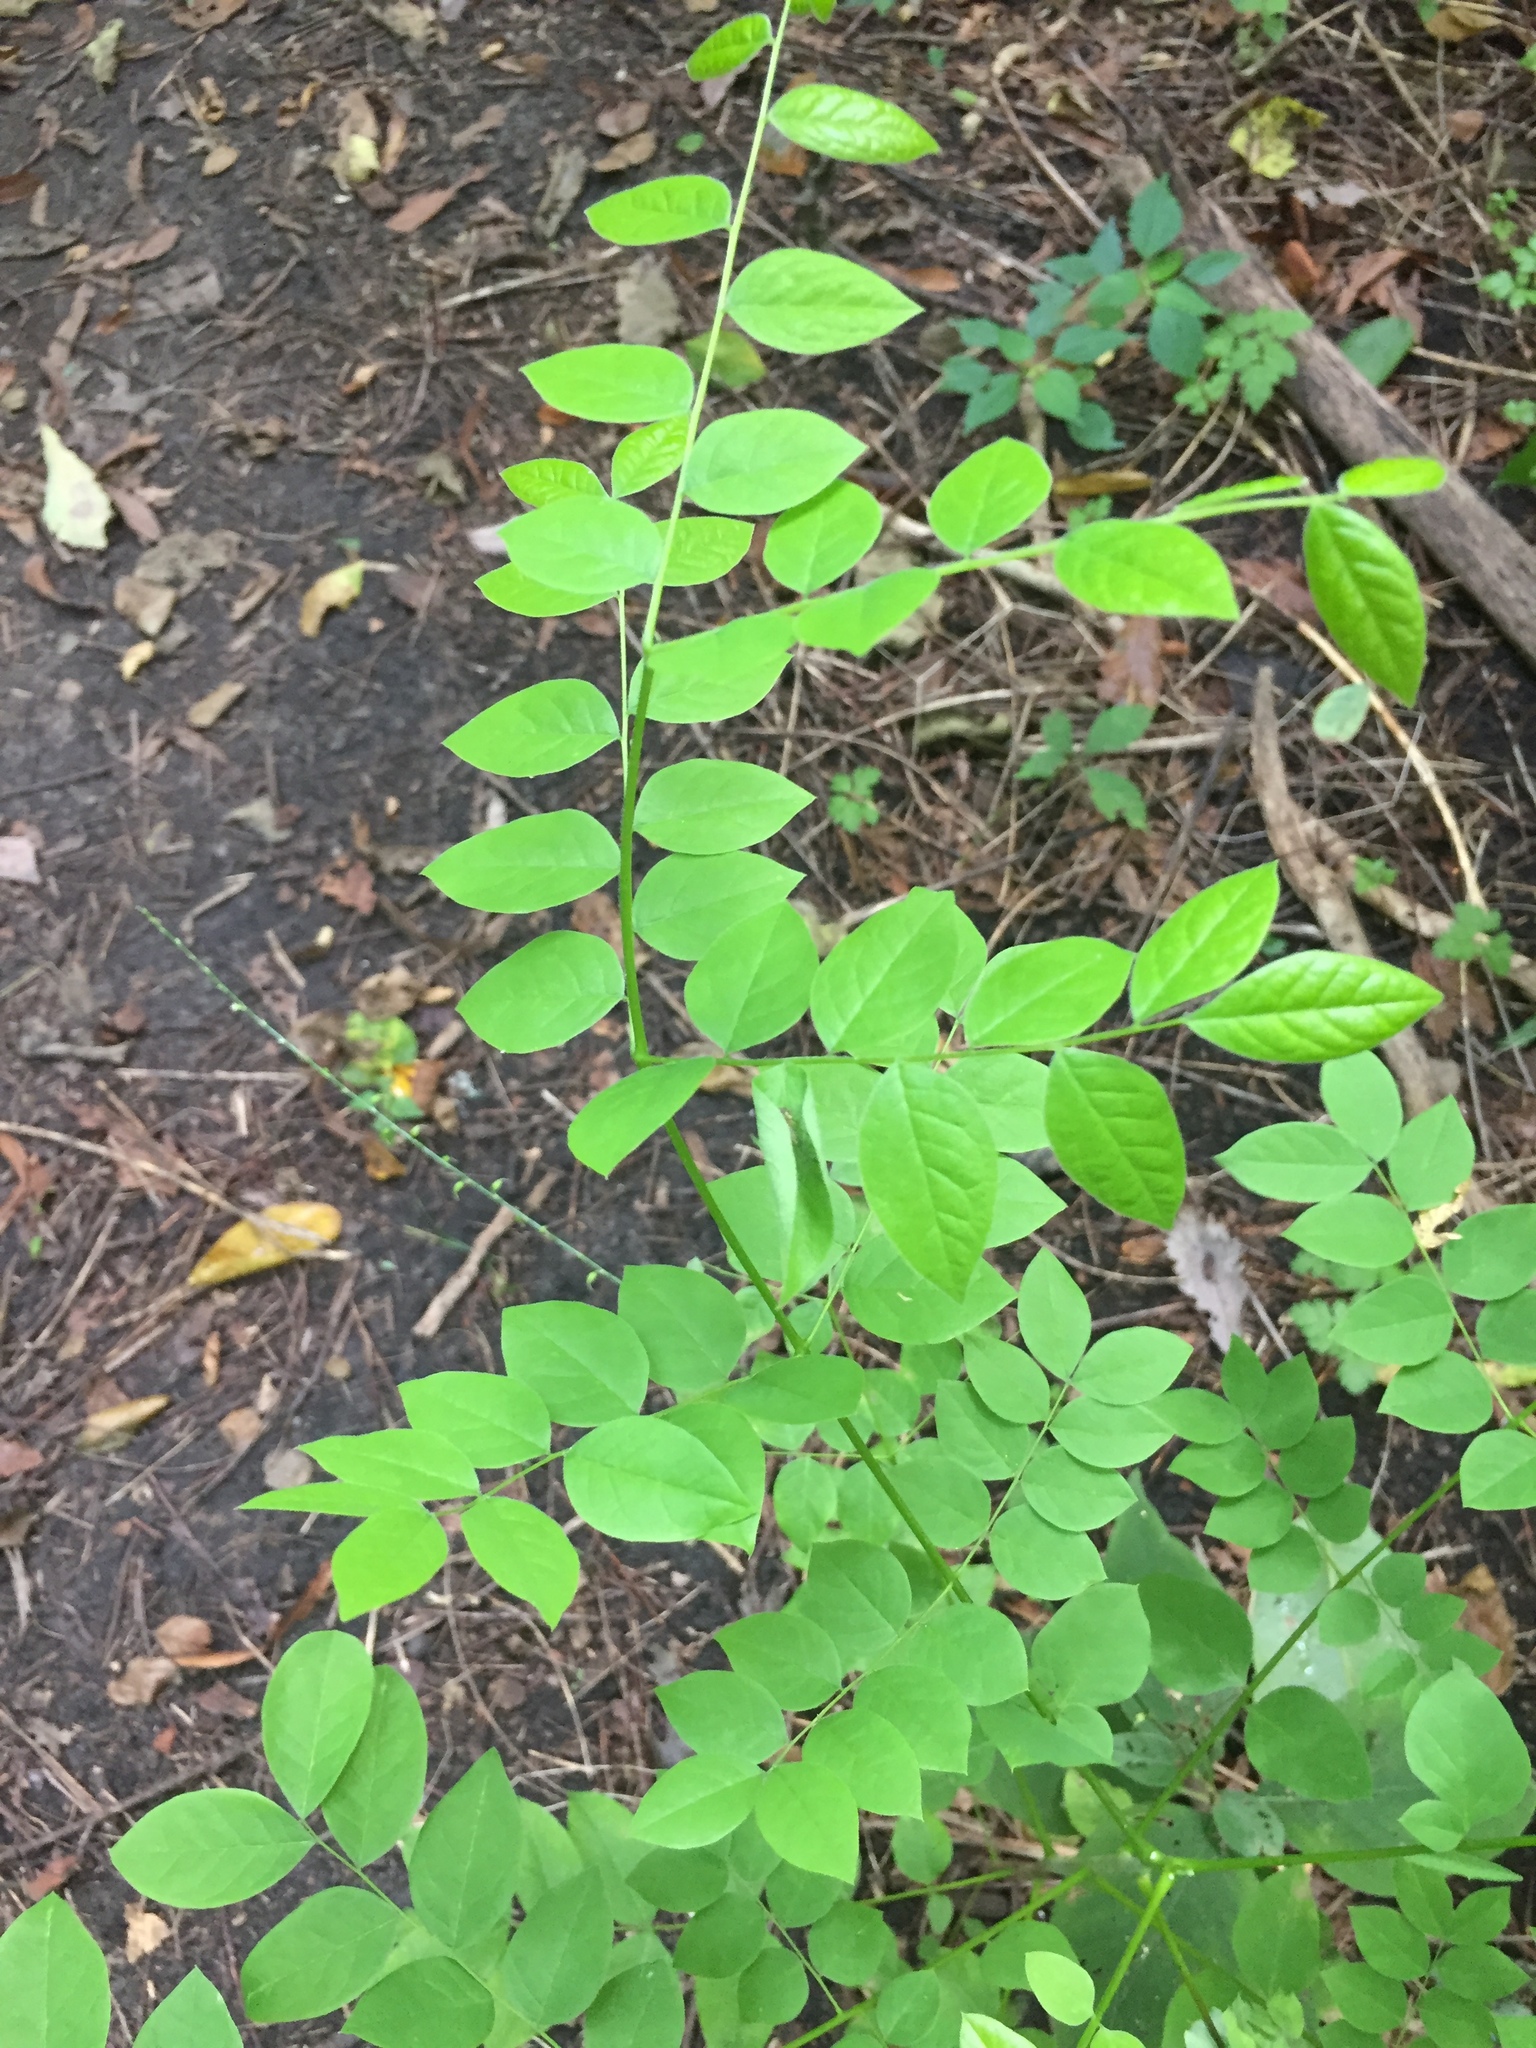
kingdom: Plantae
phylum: Tracheophyta
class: Magnoliopsida
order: Fabales
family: Fabaceae
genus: Gymnocladus
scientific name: Gymnocladus dioicus
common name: Kentucky coffee-tree
